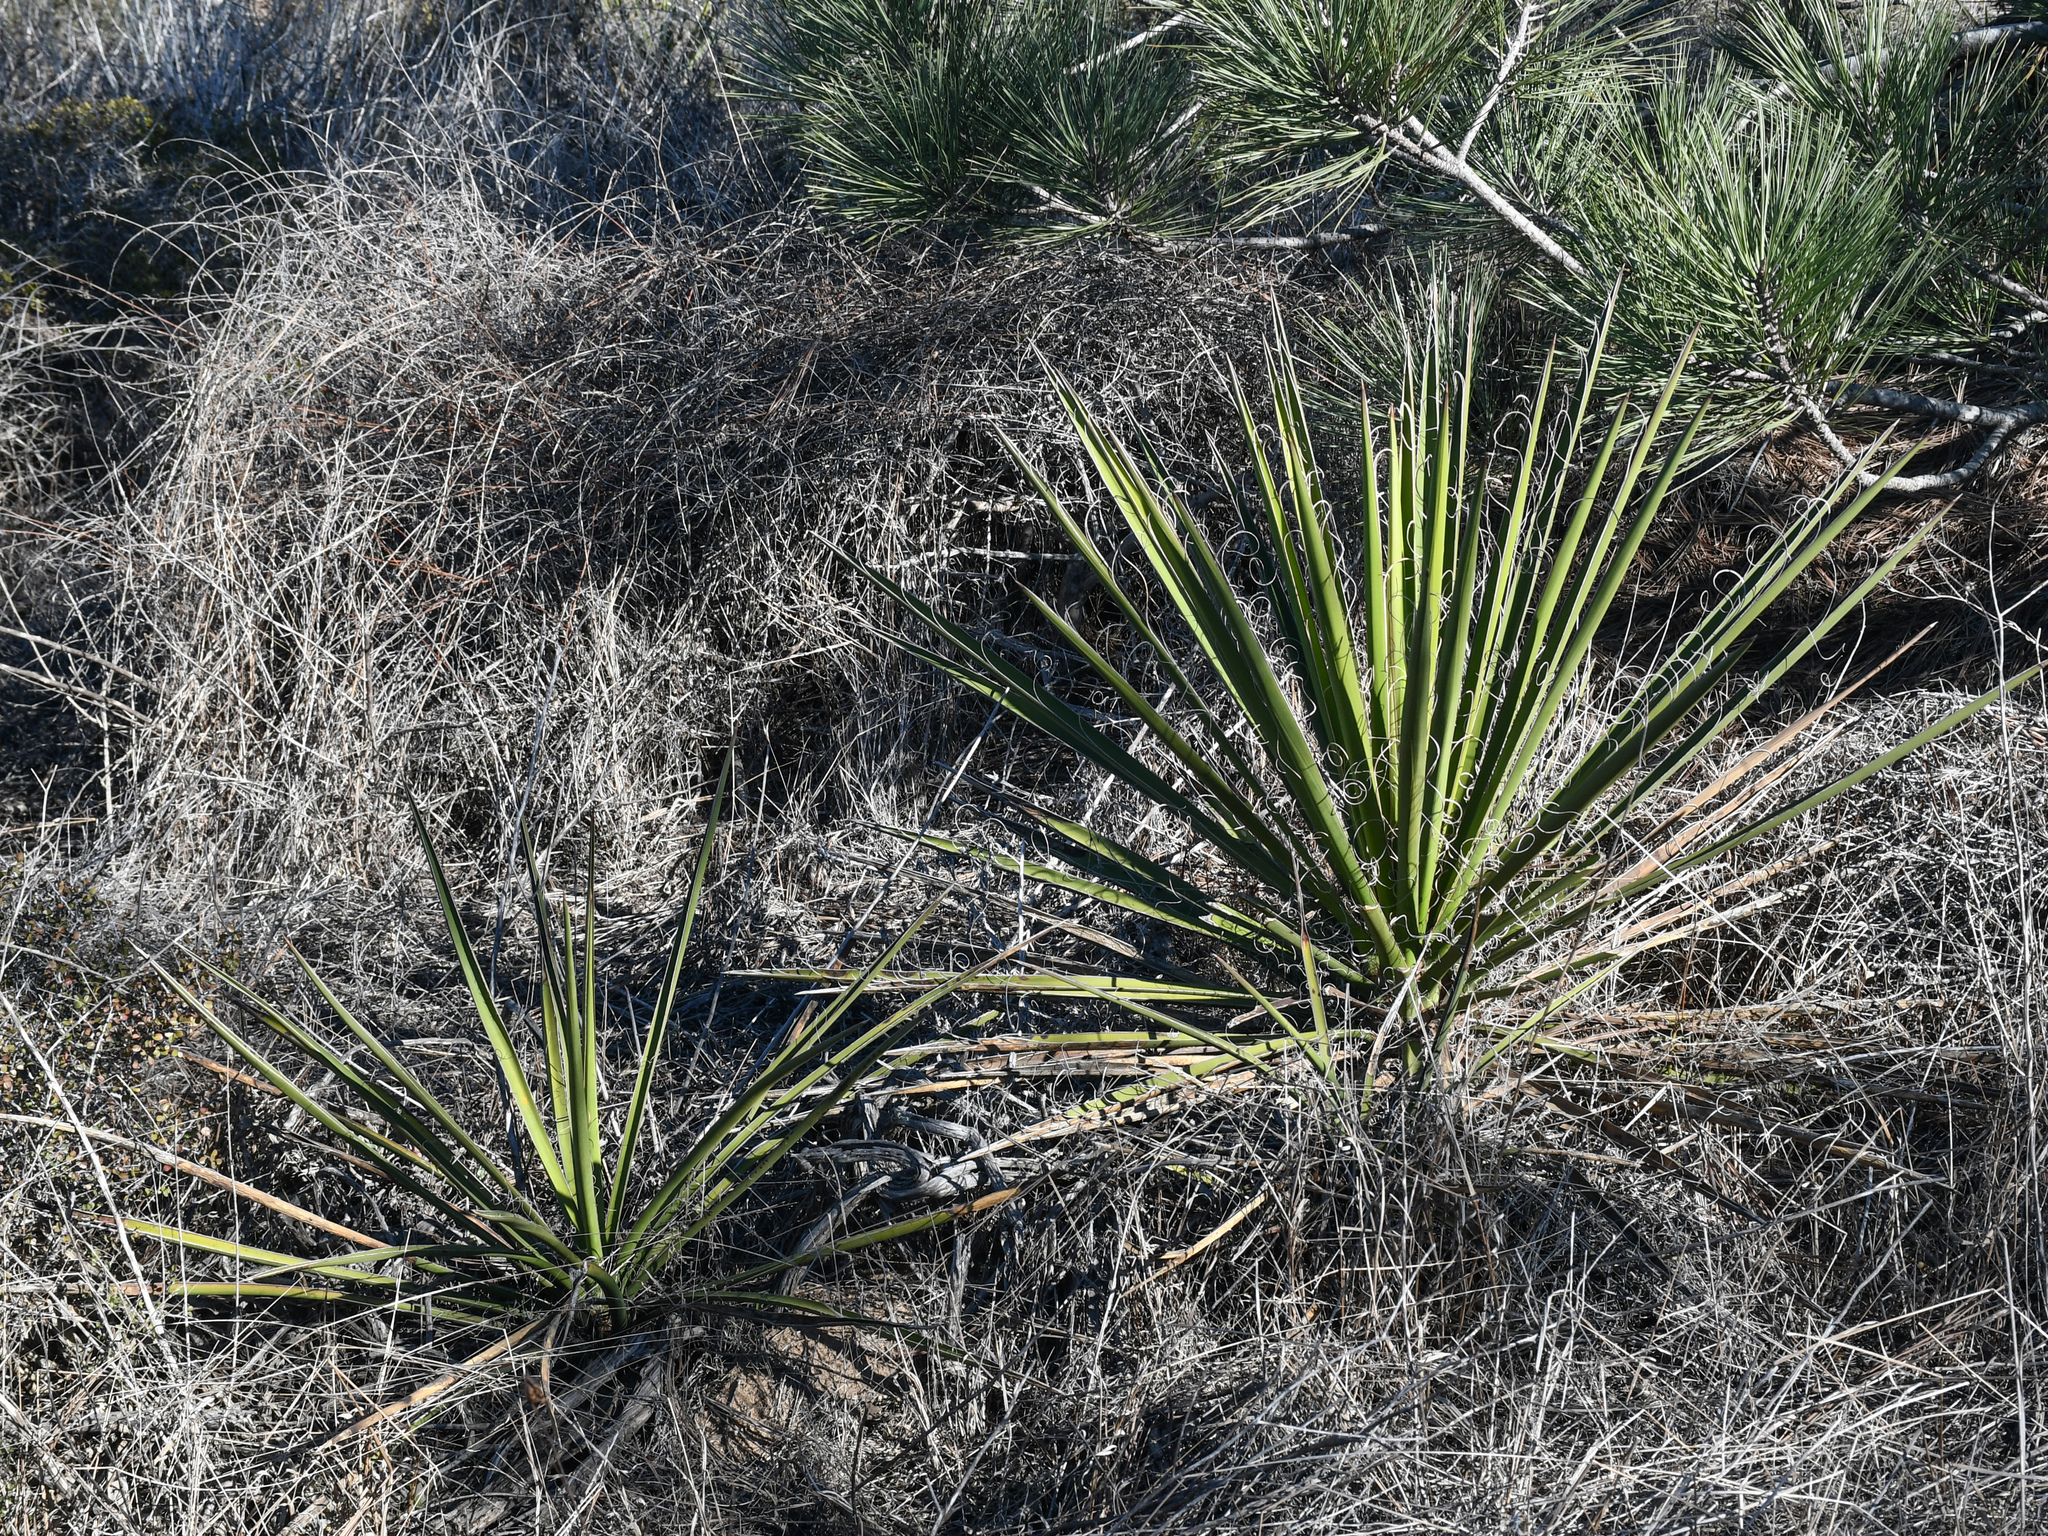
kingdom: Plantae
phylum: Tracheophyta
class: Liliopsida
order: Asparagales
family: Asparagaceae
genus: Yucca
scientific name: Yucca schidigera
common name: Mojave yucca
